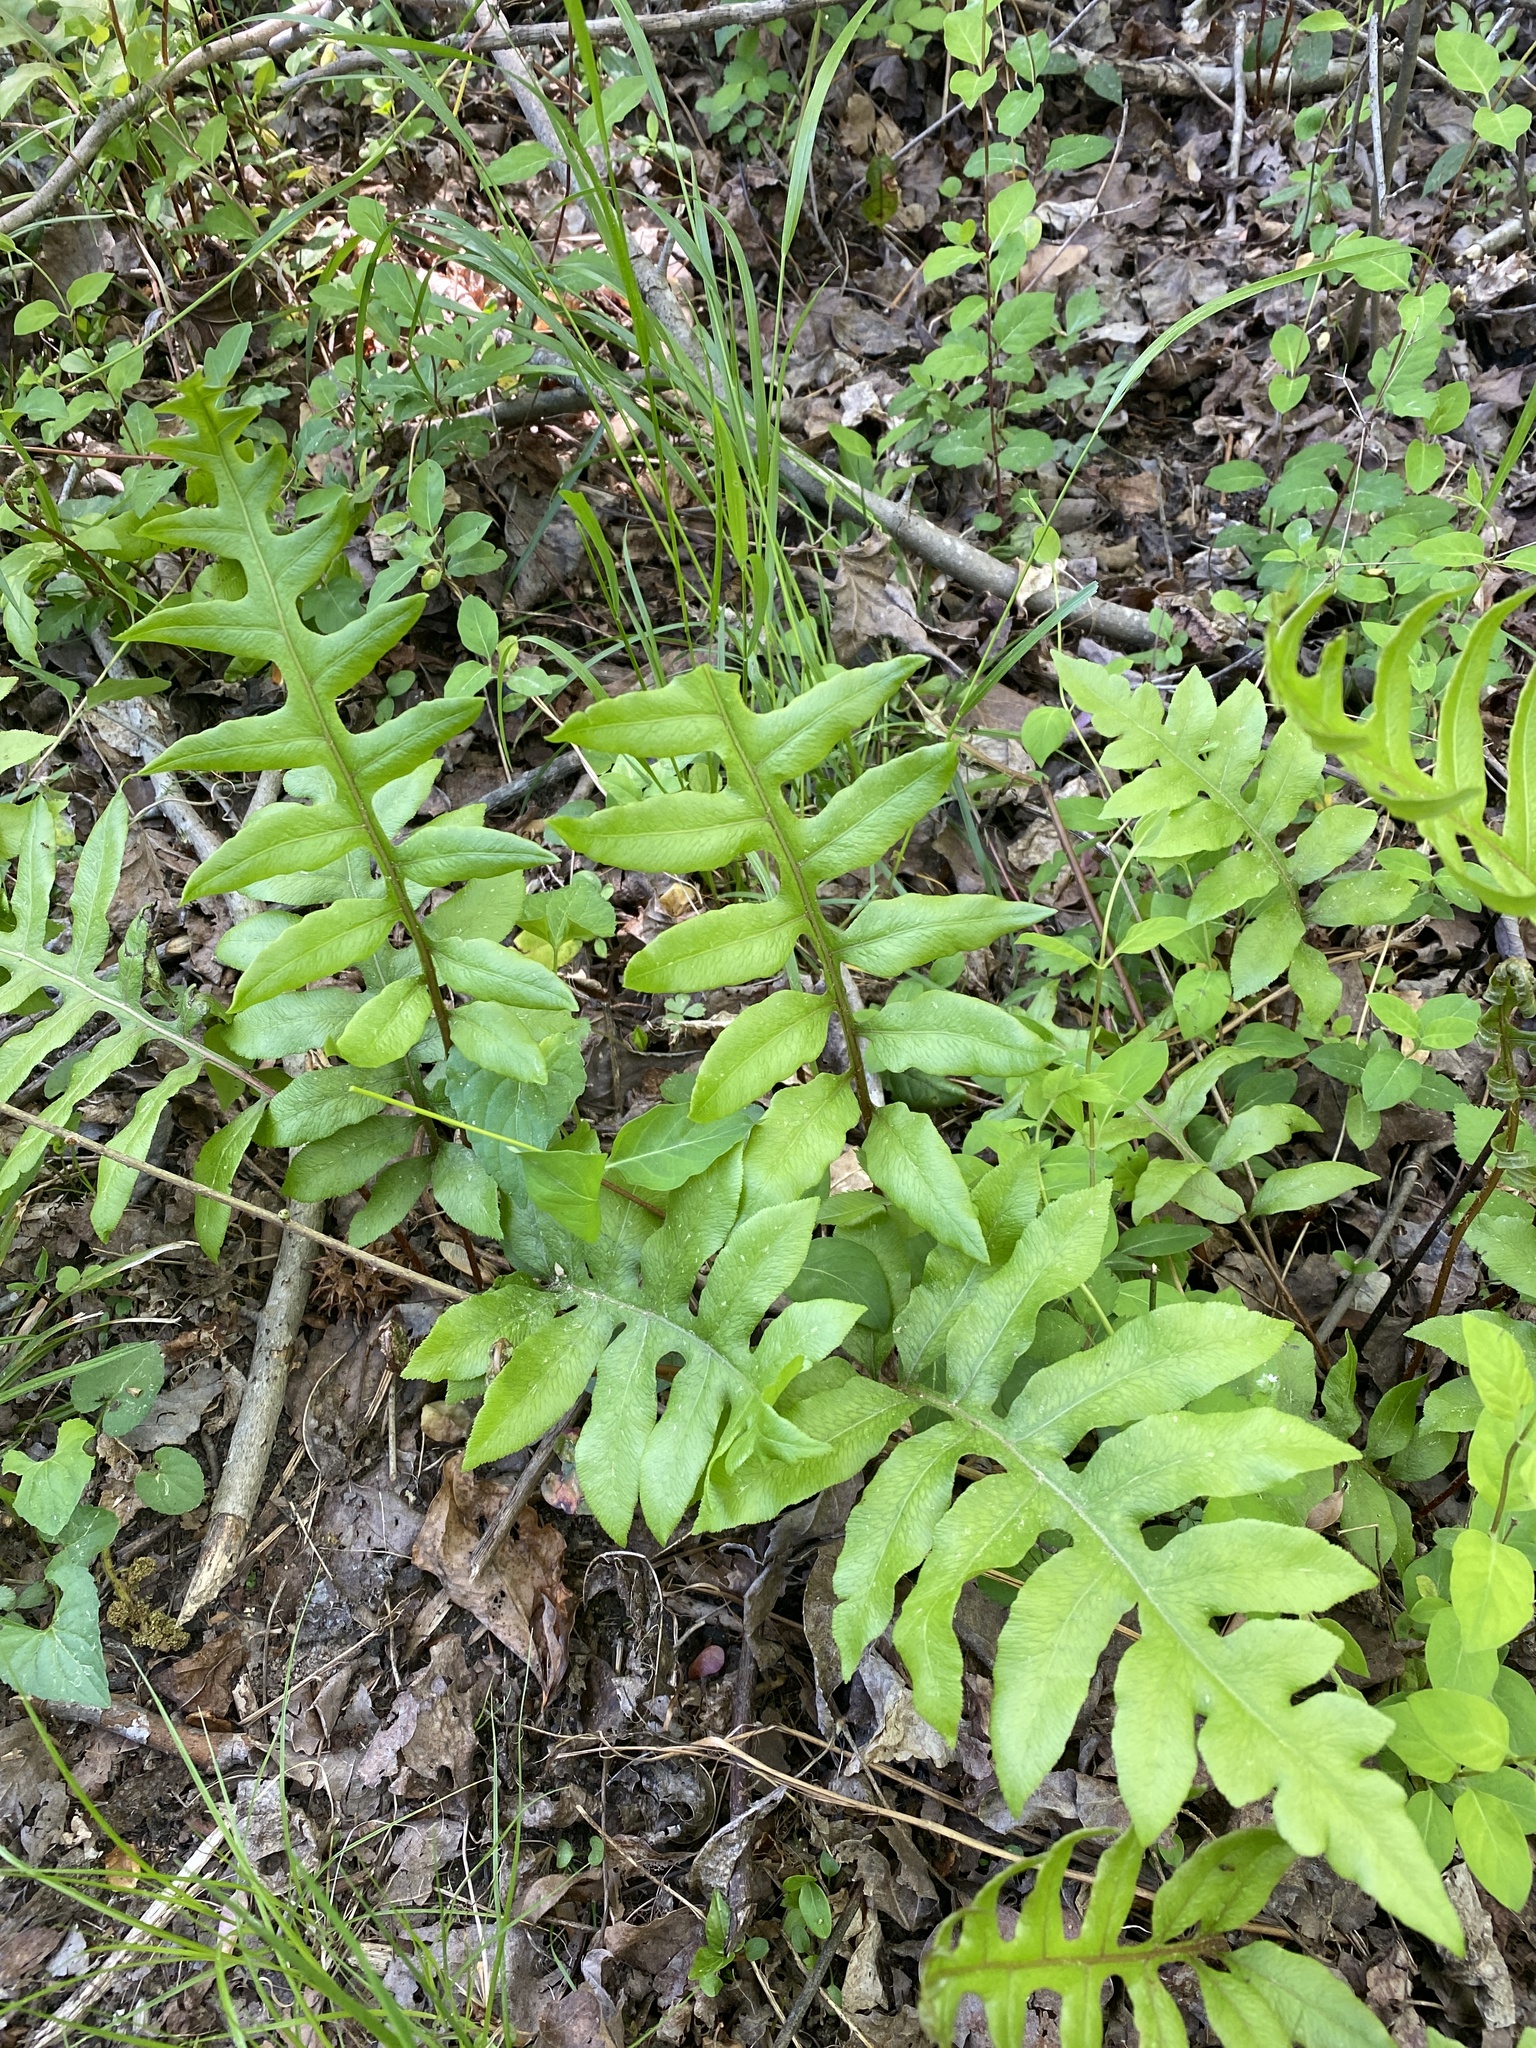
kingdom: Plantae
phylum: Tracheophyta
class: Polypodiopsida
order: Polypodiales
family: Blechnaceae
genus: Lorinseria
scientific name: Lorinseria areolata
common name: Dwarf chain fern
